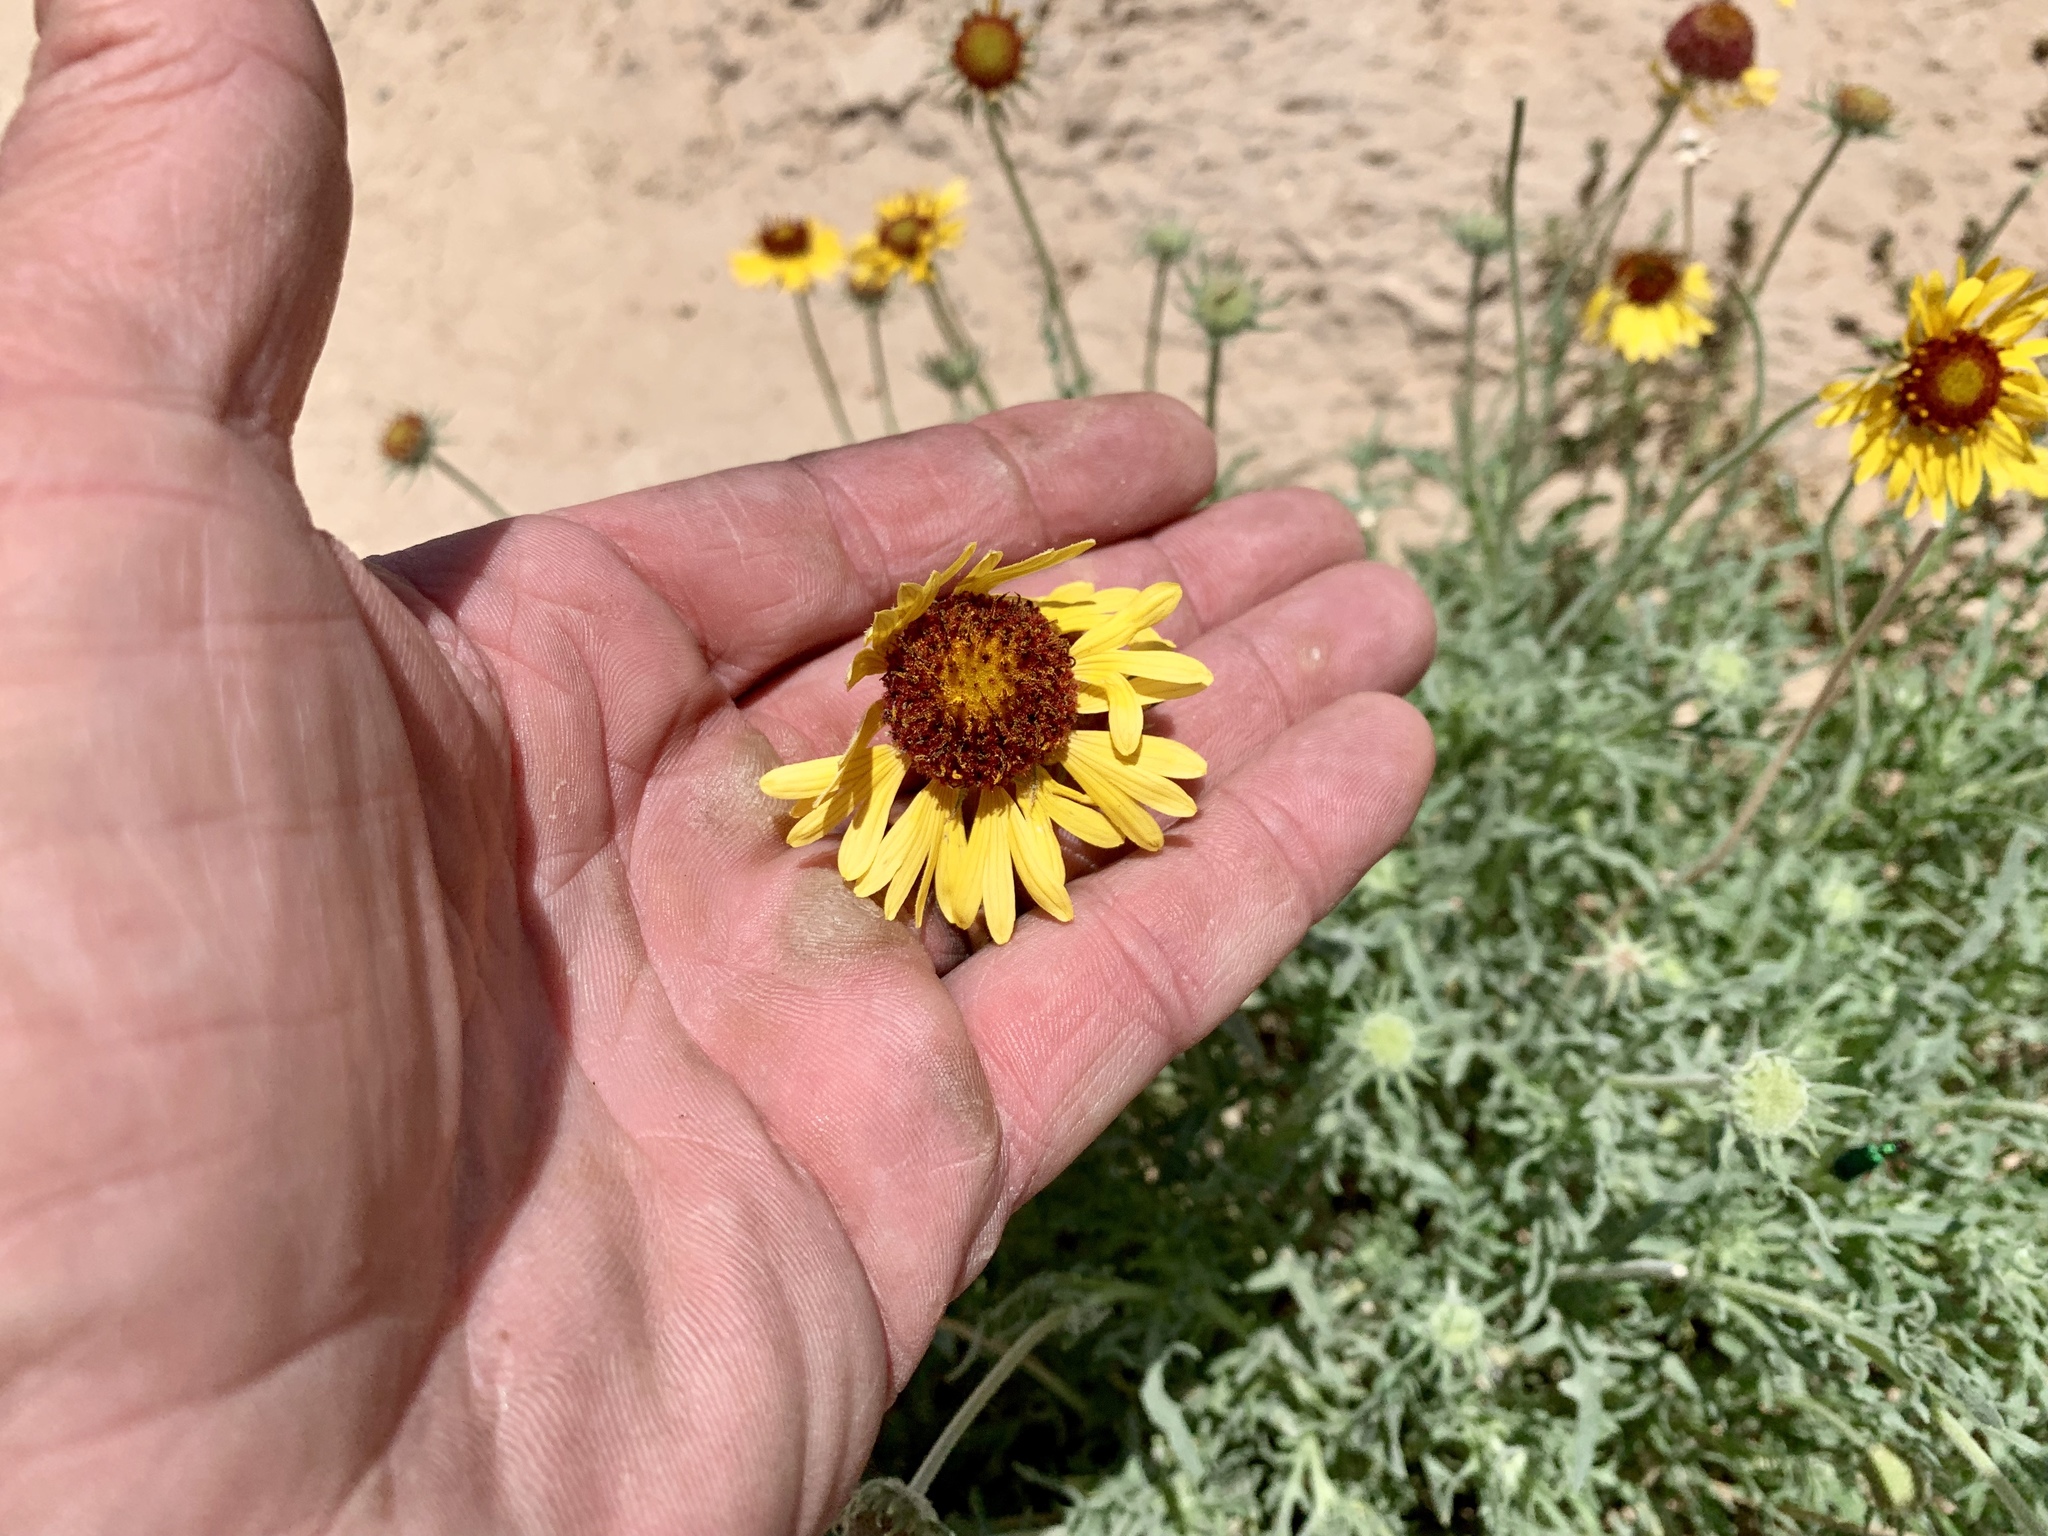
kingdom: Plantae
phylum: Tracheophyta
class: Magnoliopsida
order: Asterales
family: Asteraceae
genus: Gaillardia
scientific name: Gaillardia pinnatifida
